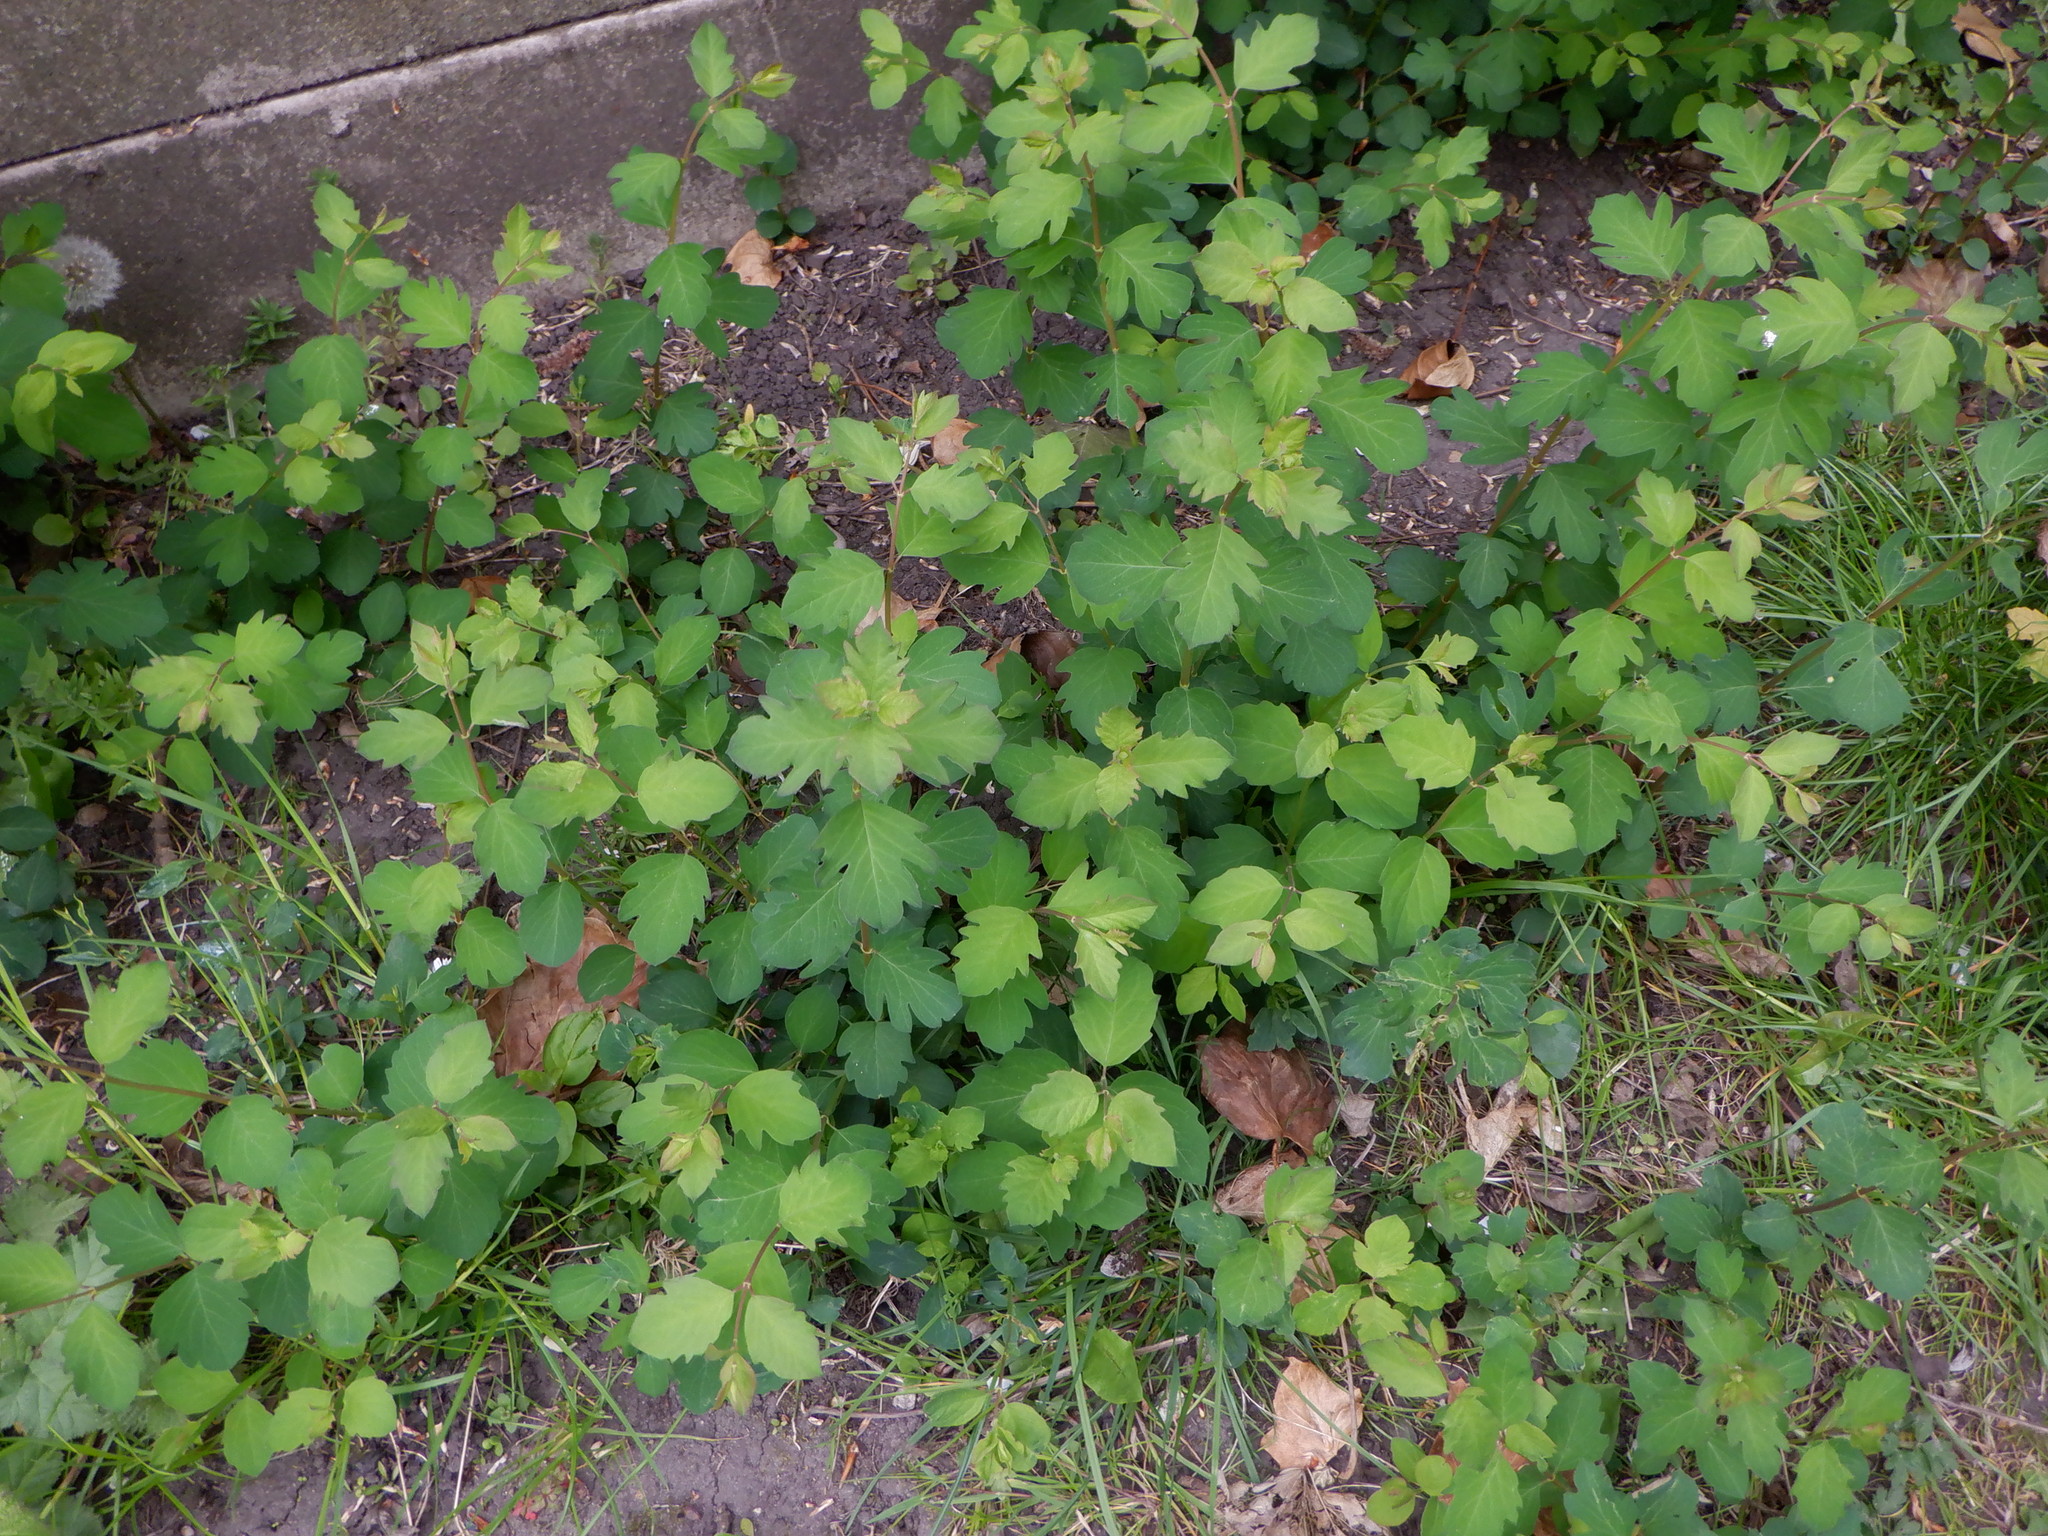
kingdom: Plantae
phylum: Tracheophyta
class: Magnoliopsida
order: Dipsacales
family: Caprifoliaceae
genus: Symphoricarpos
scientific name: Symphoricarpos albus
